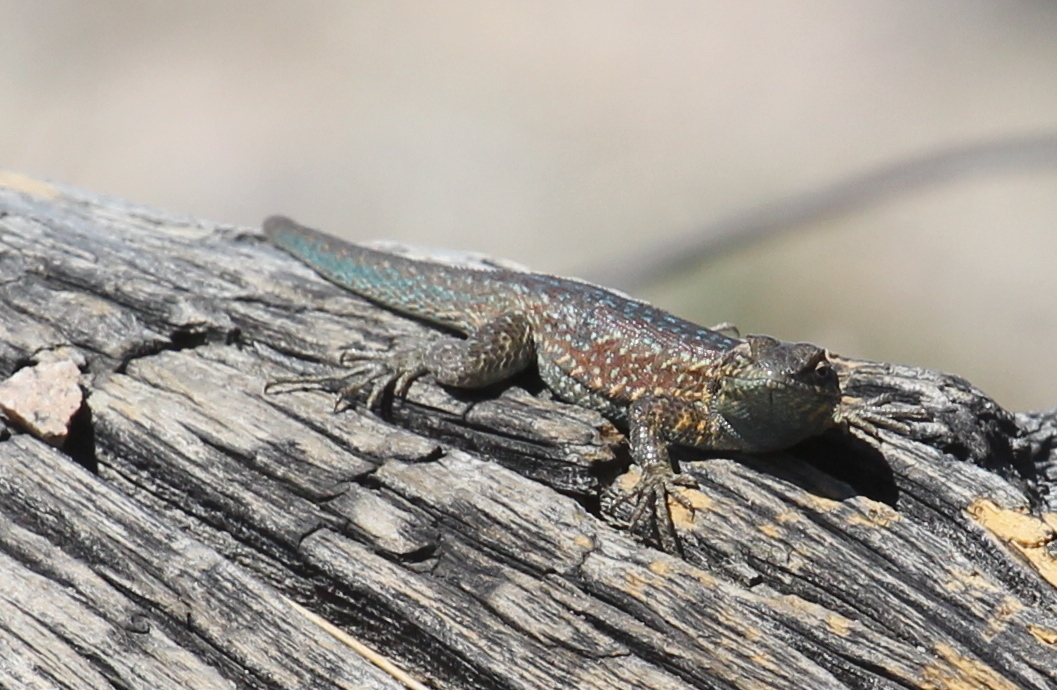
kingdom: Animalia
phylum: Chordata
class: Squamata
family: Phrynosomatidae
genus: Uta
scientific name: Uta stansburiana
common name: Side-blotched lizard
